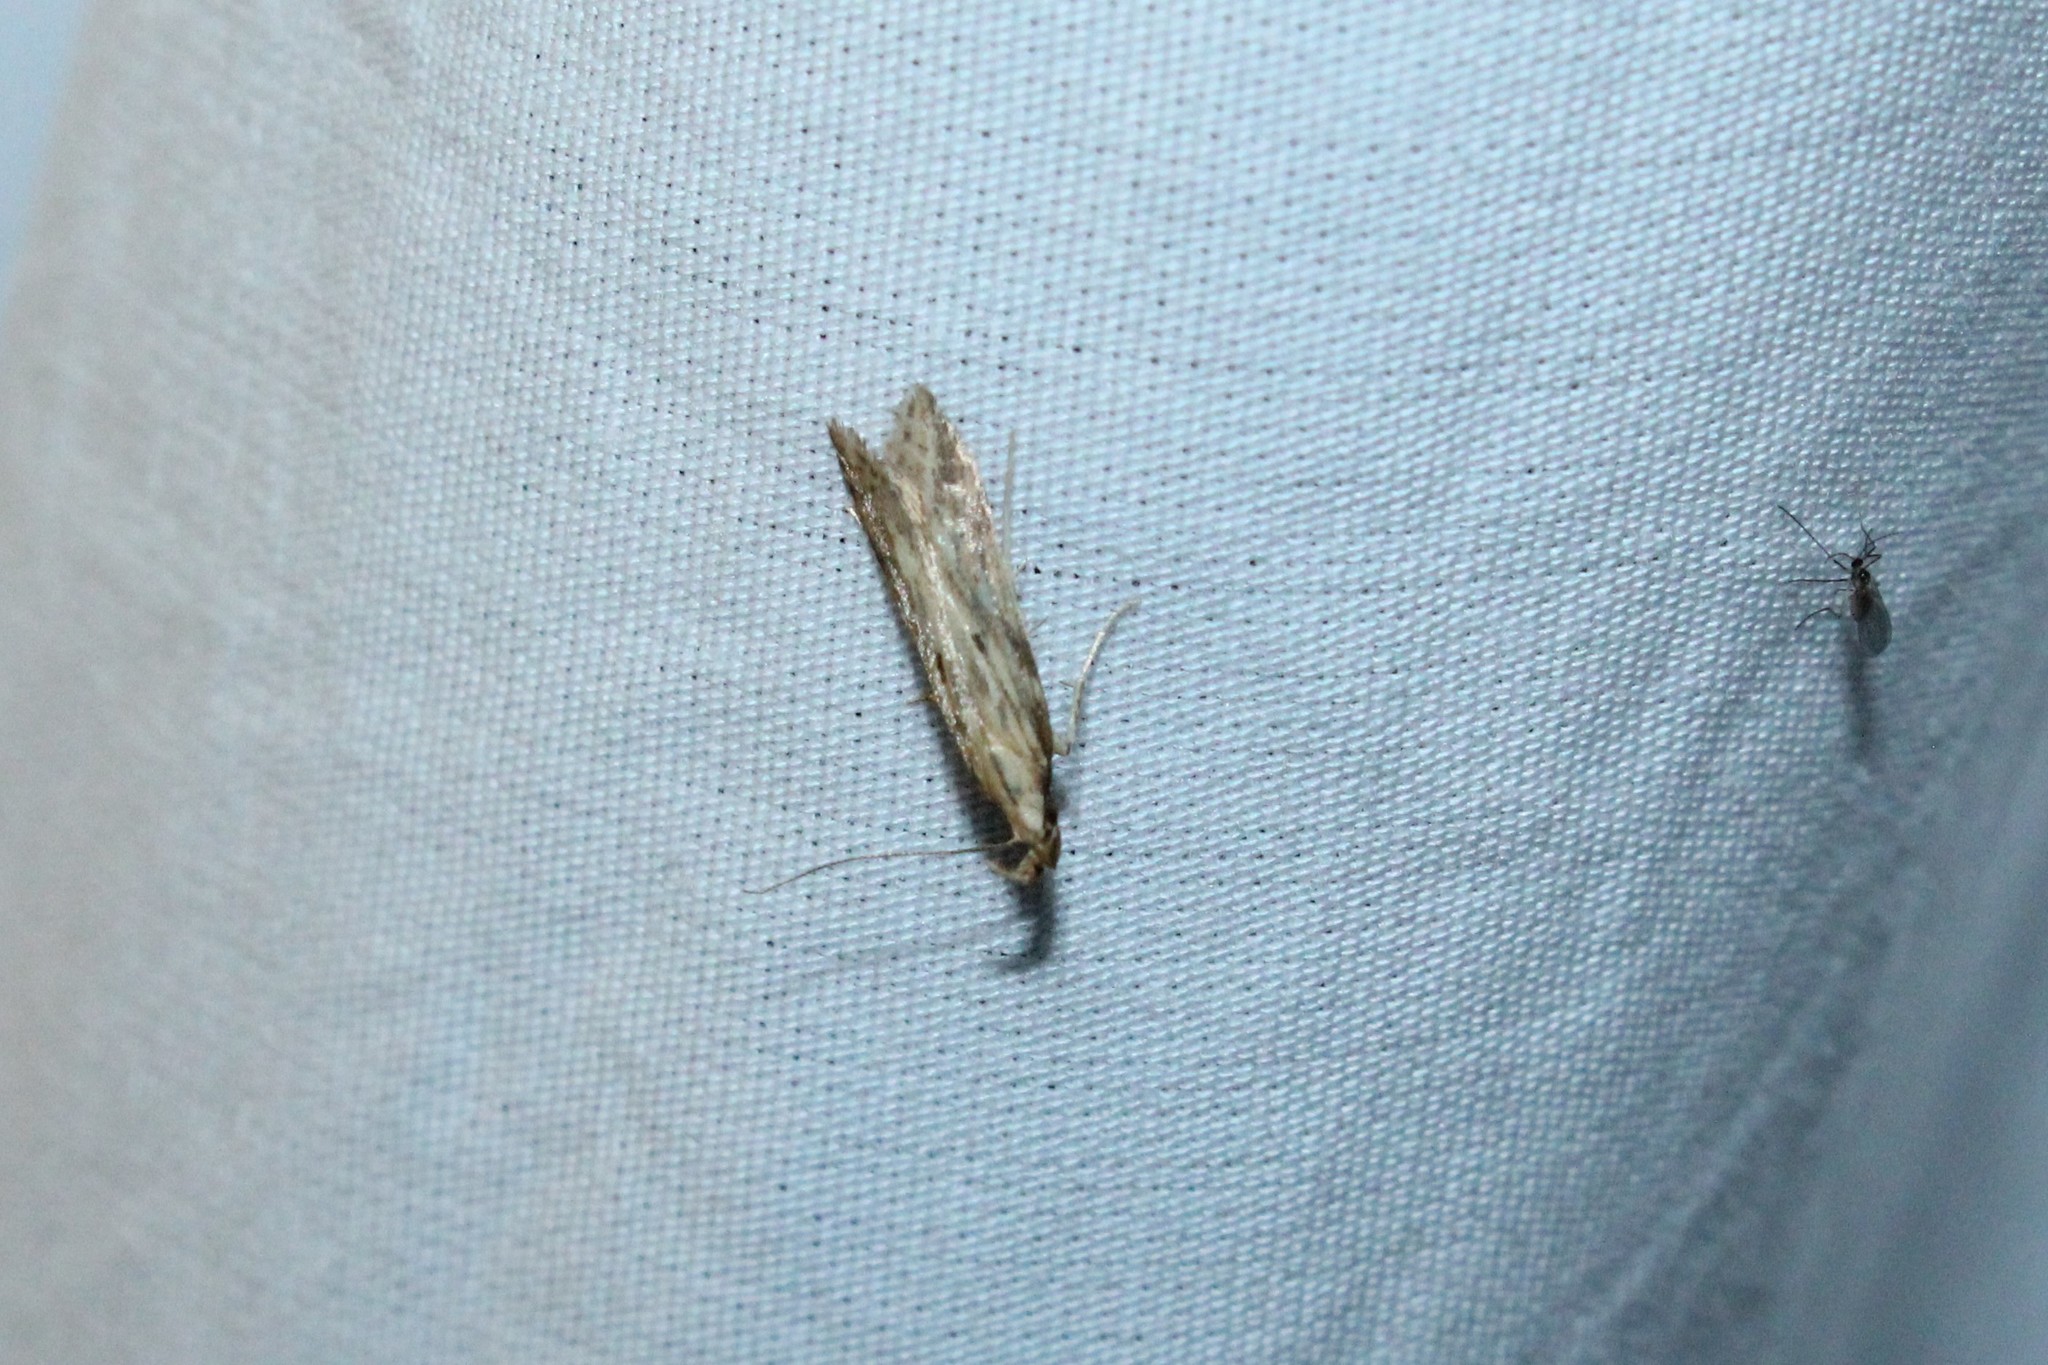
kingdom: Animalia
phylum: Arthropoda
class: Insecta
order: Lepidoptera
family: Gelechiidae
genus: Metzneria
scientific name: Metzneria lappella
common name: Burdock neb
